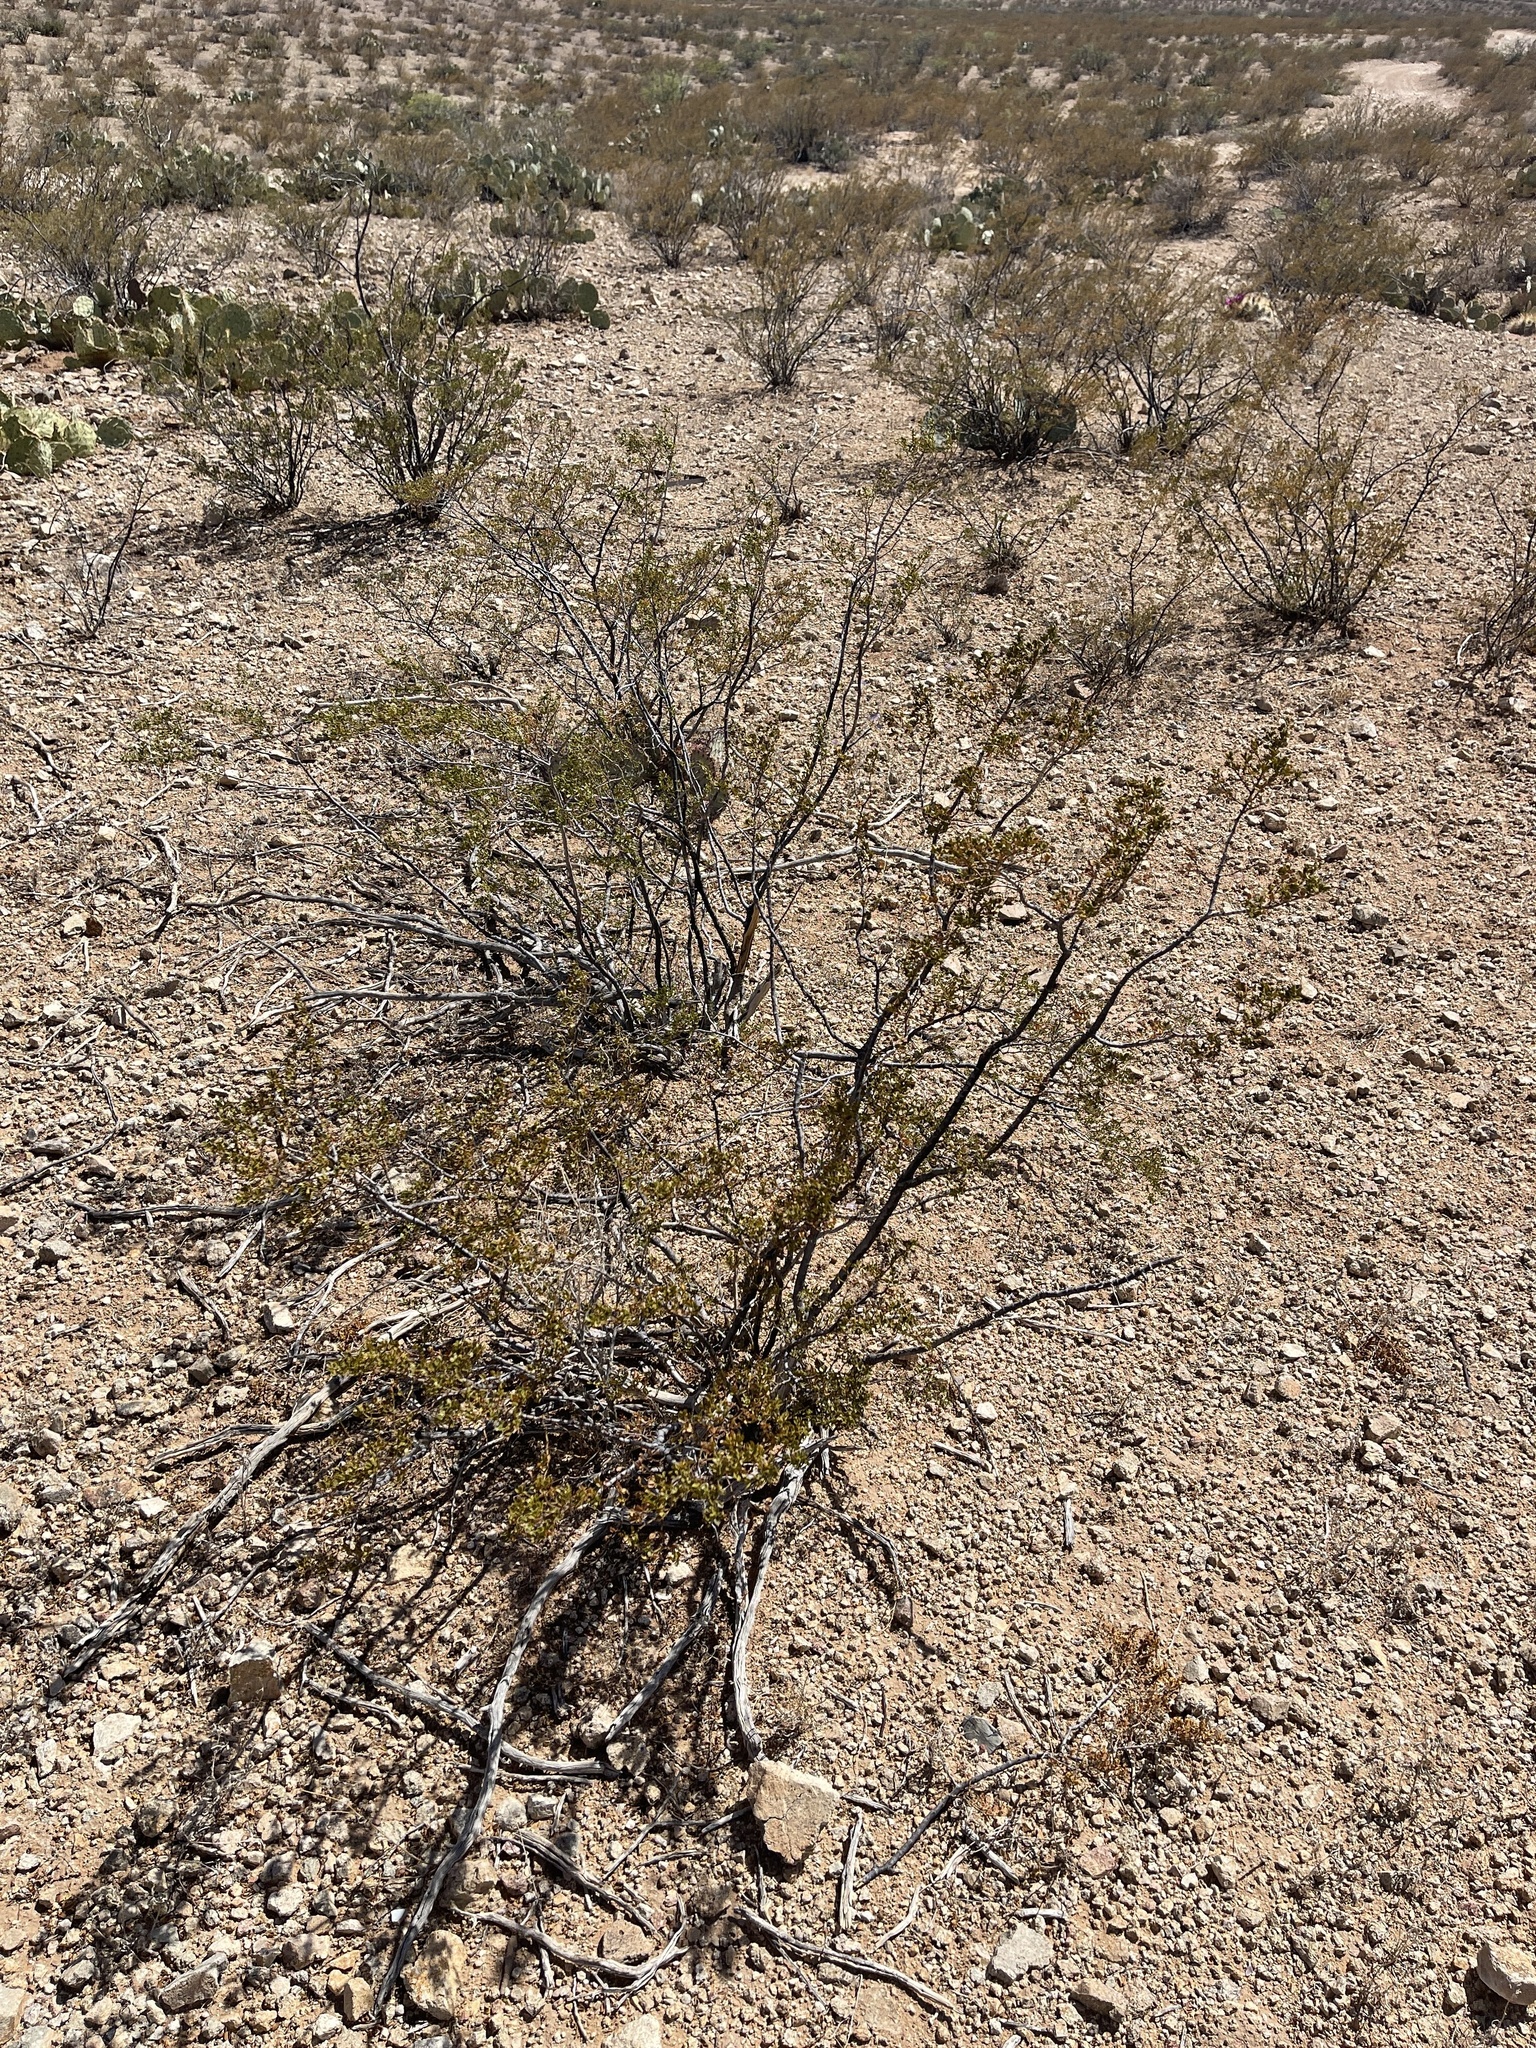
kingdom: Plantae
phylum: Tracheophyta
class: Magnoliopsida
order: Zygophyllales
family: Zygophyllaceae
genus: Larrea
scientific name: Larrea tridentata
